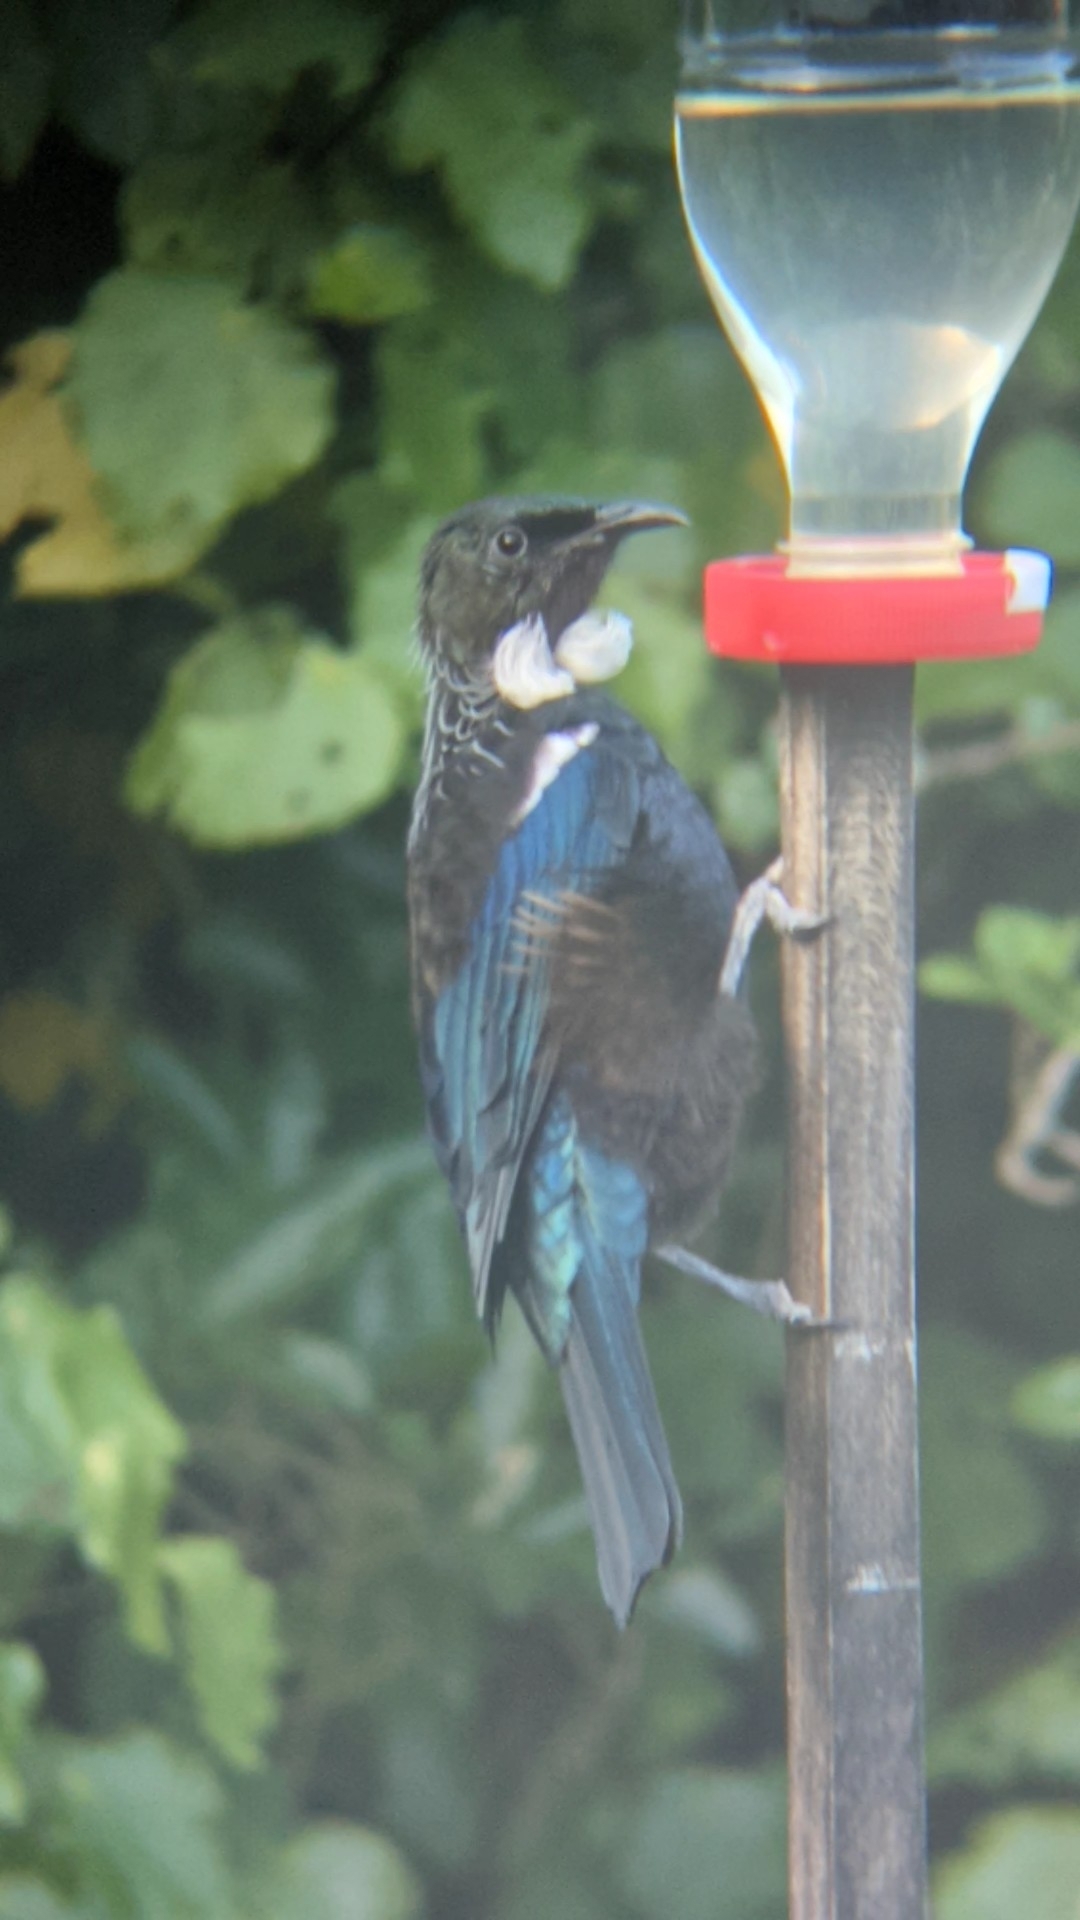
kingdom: Animalia
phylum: Chordata
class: Aves
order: Passeriformes
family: Meliphagidae
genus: Prosthemadera
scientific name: Prosthemadera novaeseelandiae
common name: Tui
